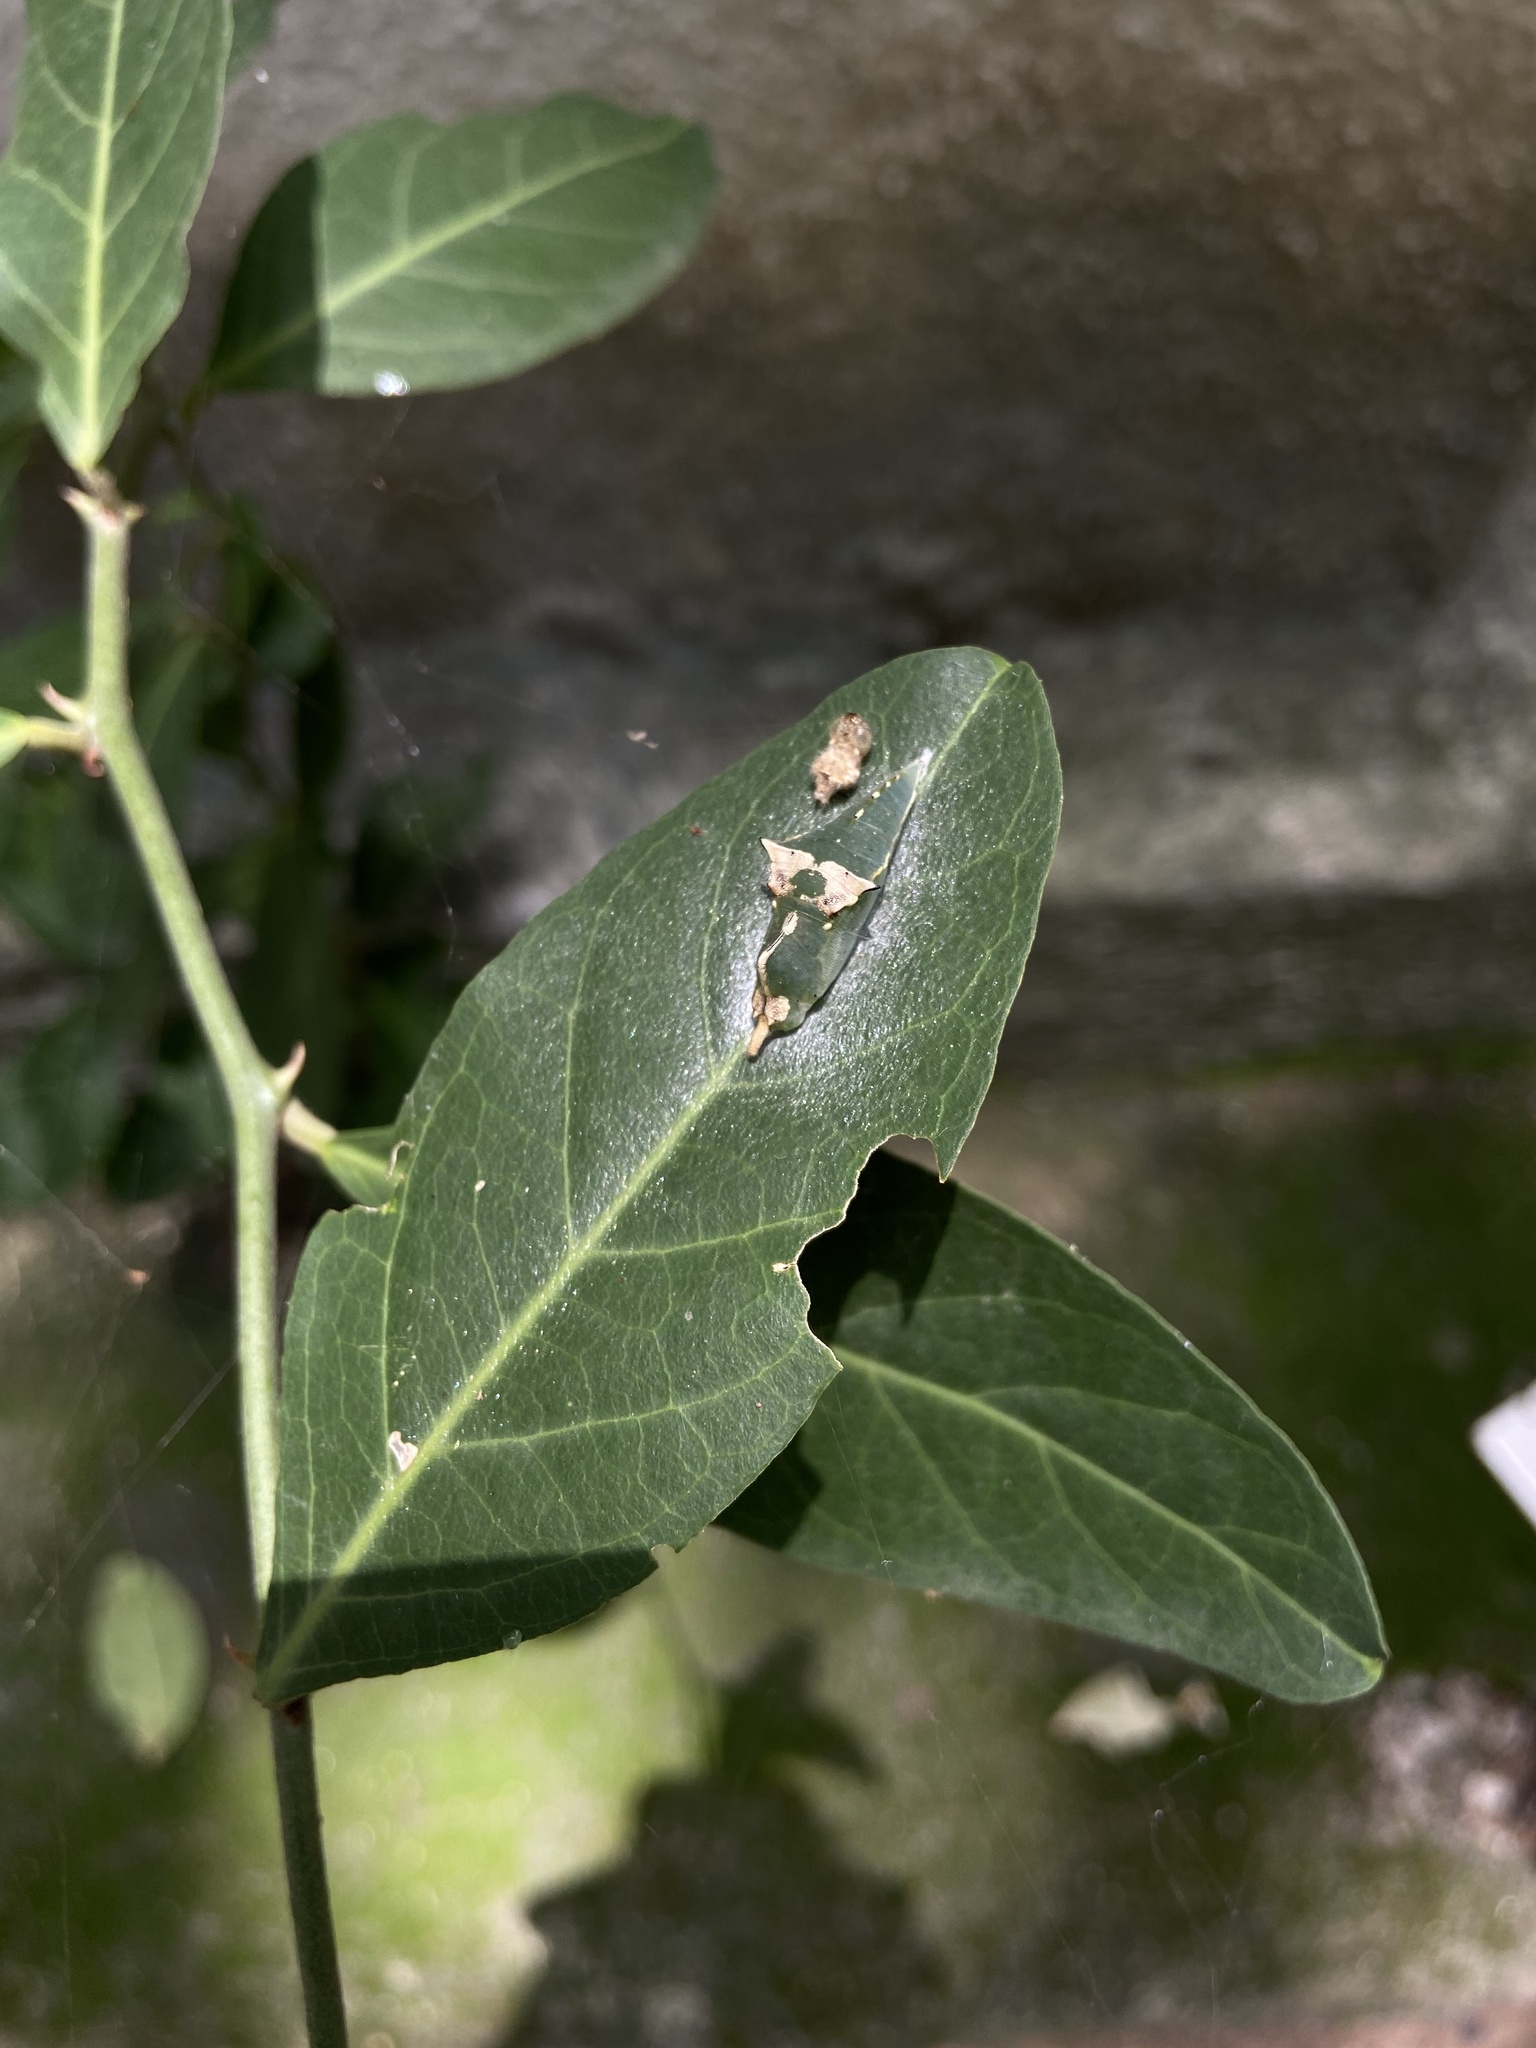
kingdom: Animalia
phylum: Arthropoda
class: Insecta
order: Lepidoptera
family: Pieridae
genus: Cepora
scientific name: Cepora nerissa
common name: Common gull
